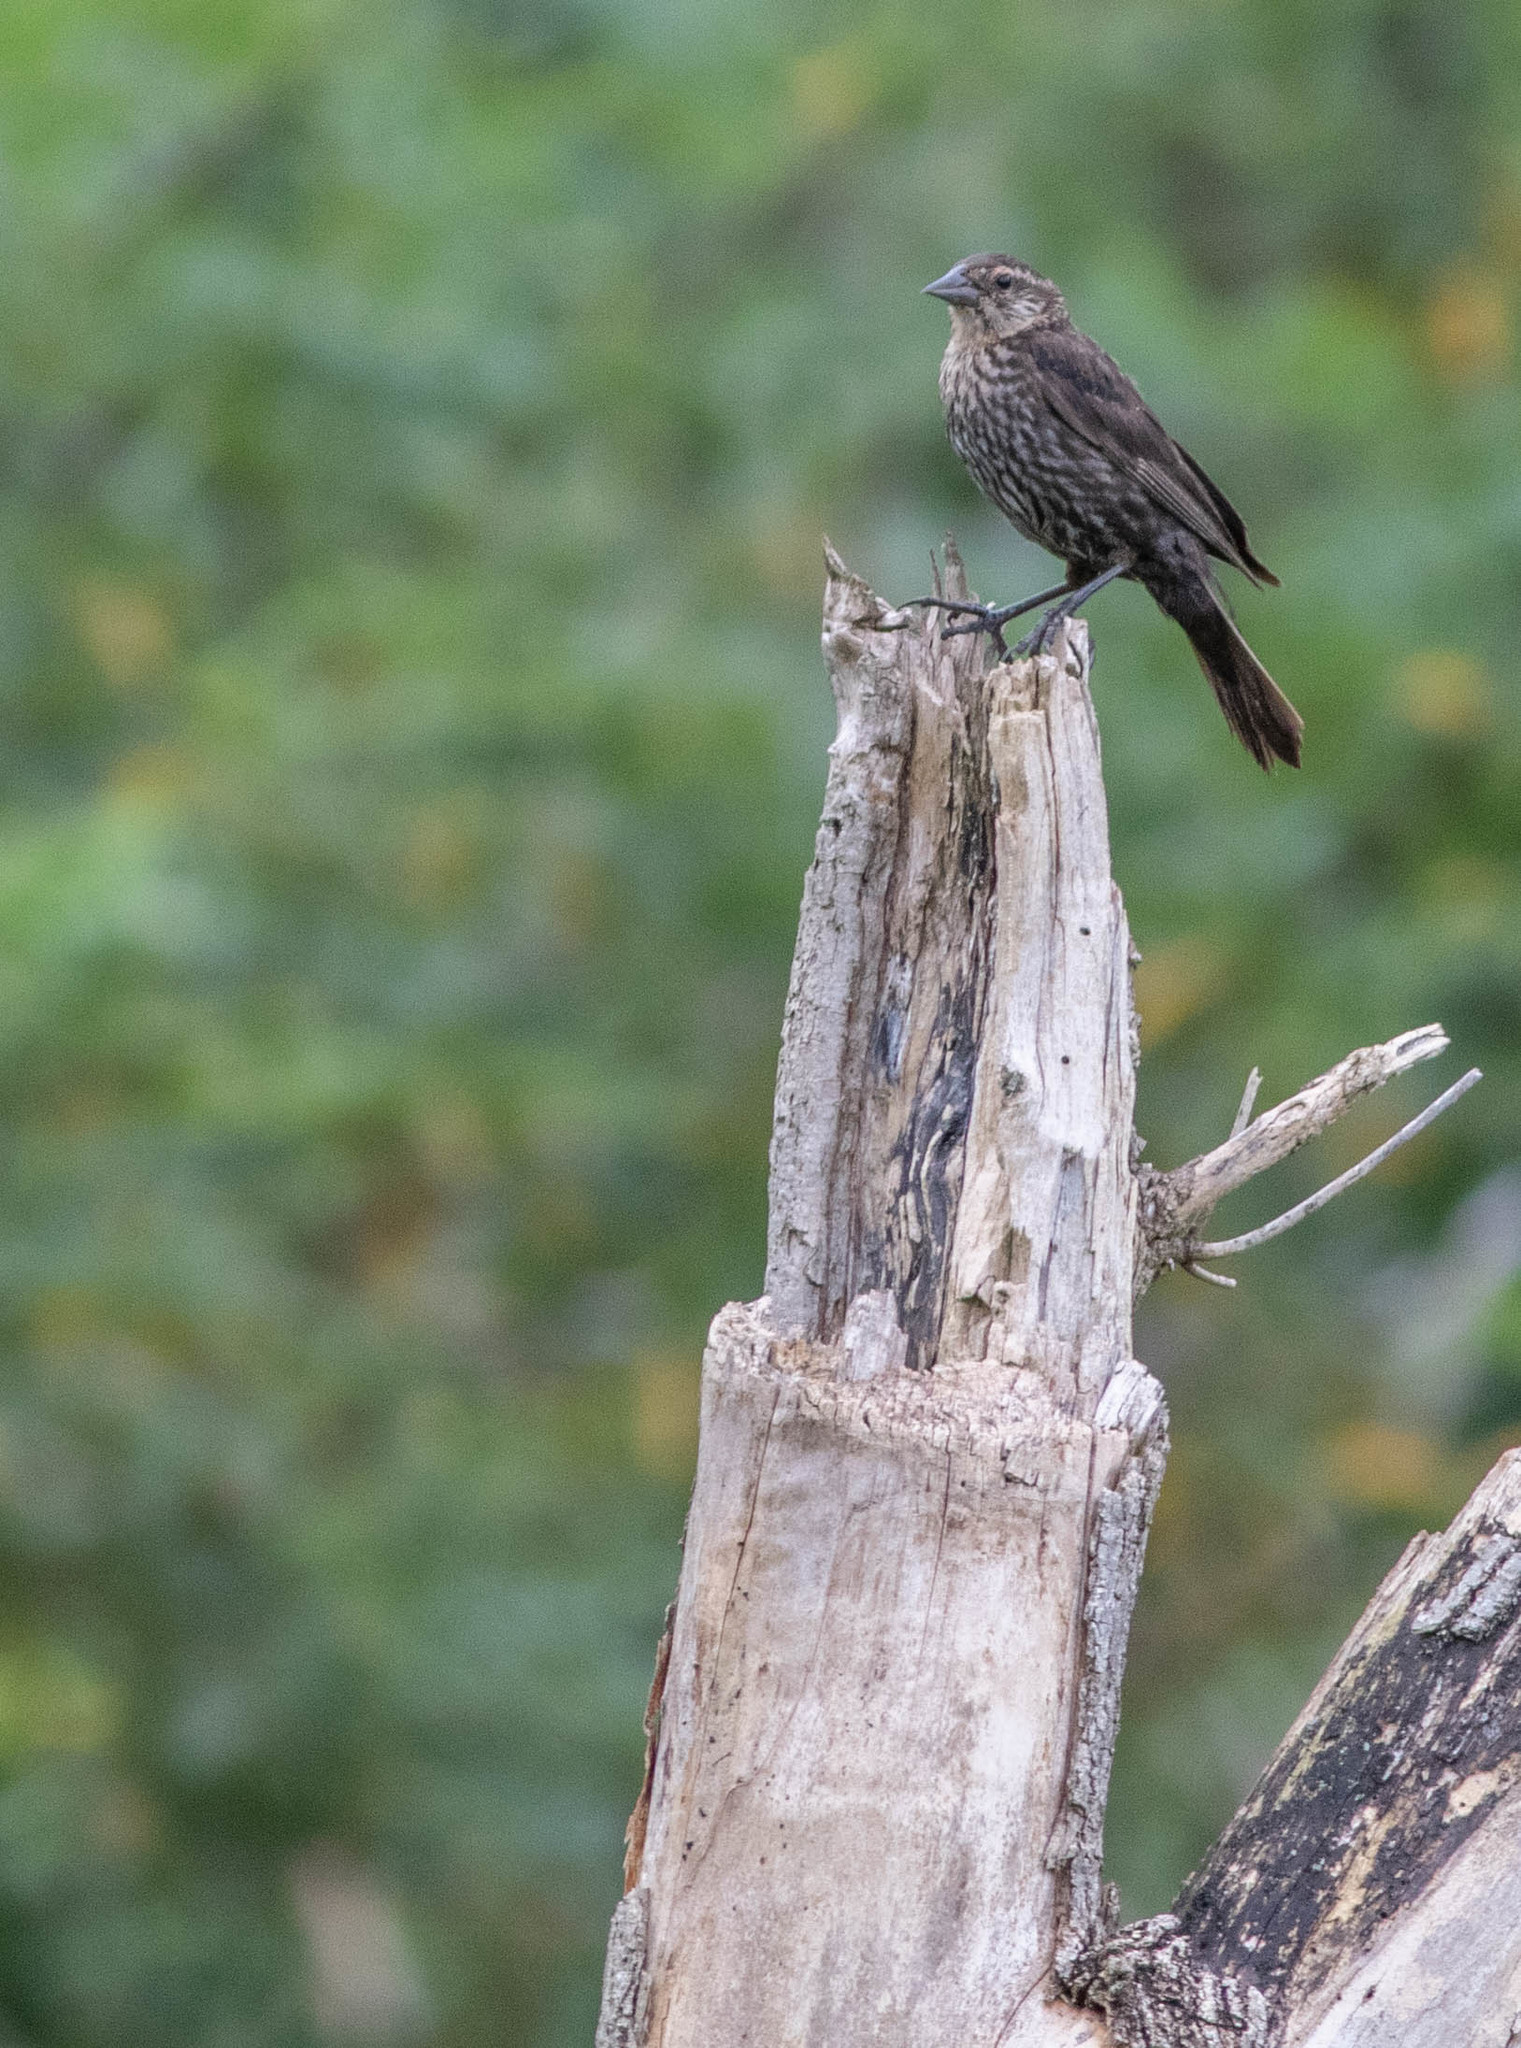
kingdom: Animalia
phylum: Chordata
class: Aves
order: Passeriformes
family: Icteridae
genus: Agelaius
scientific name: Agelaius phoeniceus
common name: Red-winged blackbird
